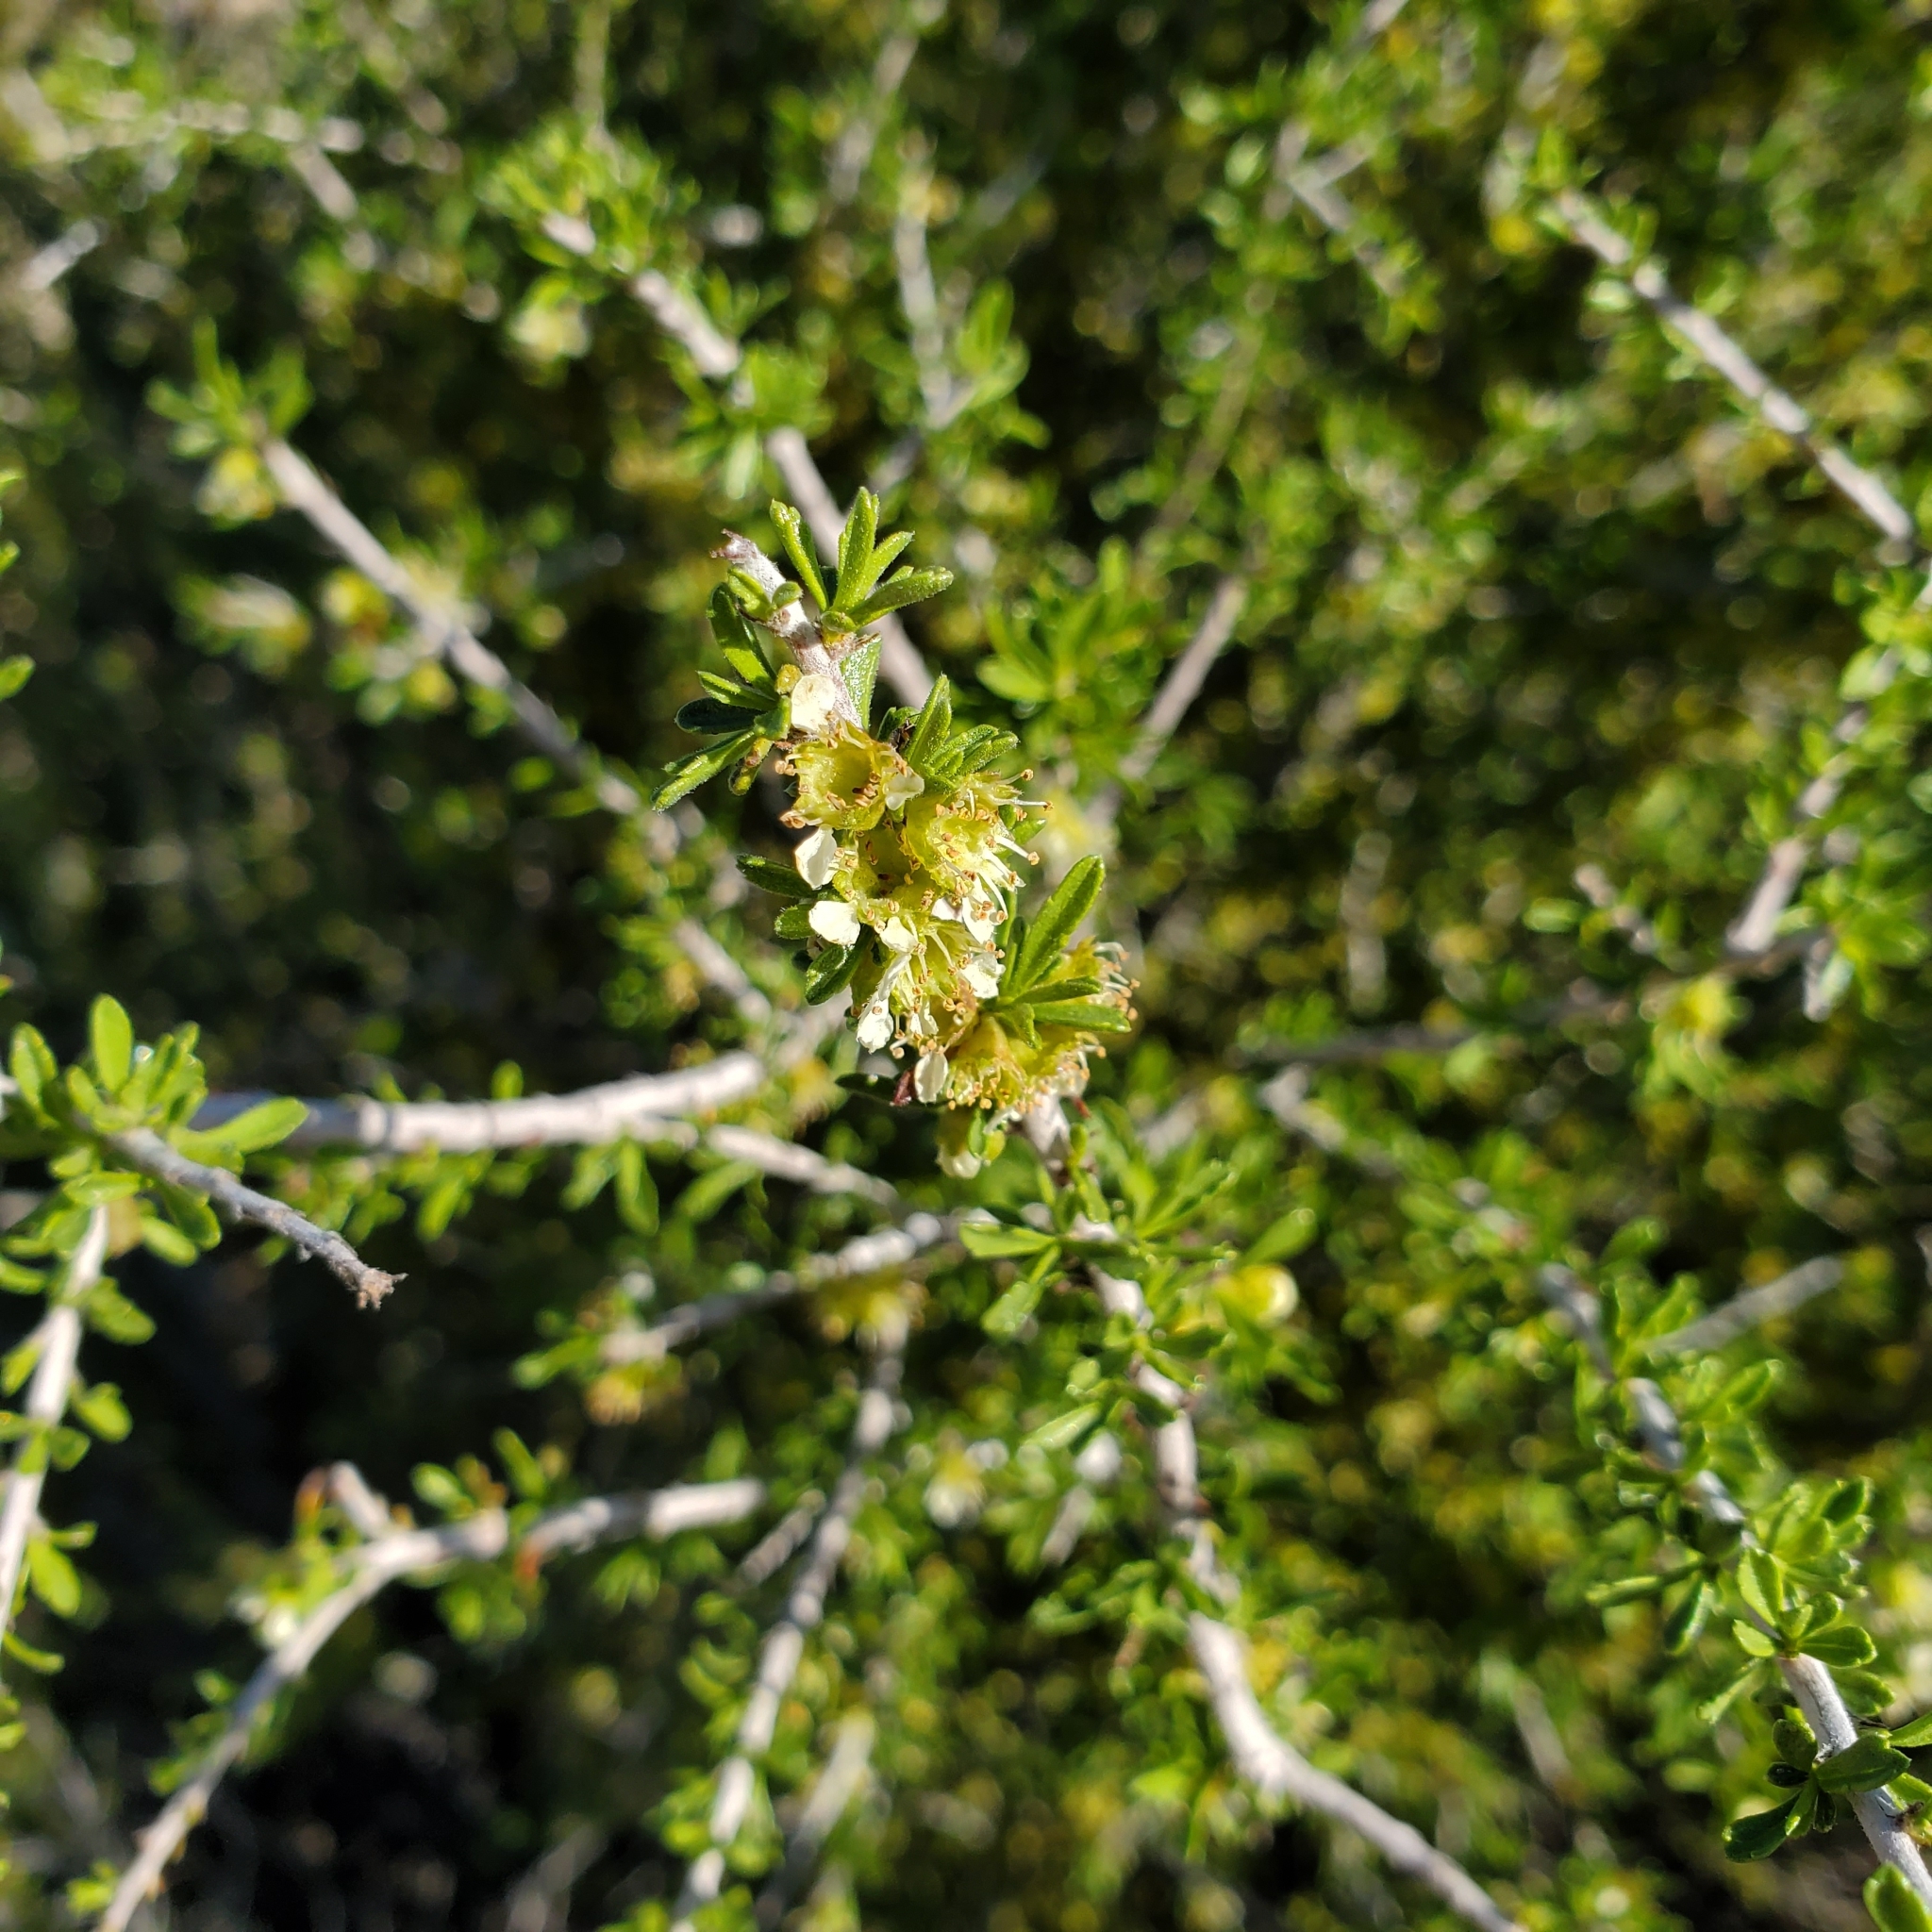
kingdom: Plantae
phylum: Tracheophyta
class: Magnoliopsida
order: Rosales
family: Rosaceae
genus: Prunus
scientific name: Prunus fasciculata
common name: Desert almond
